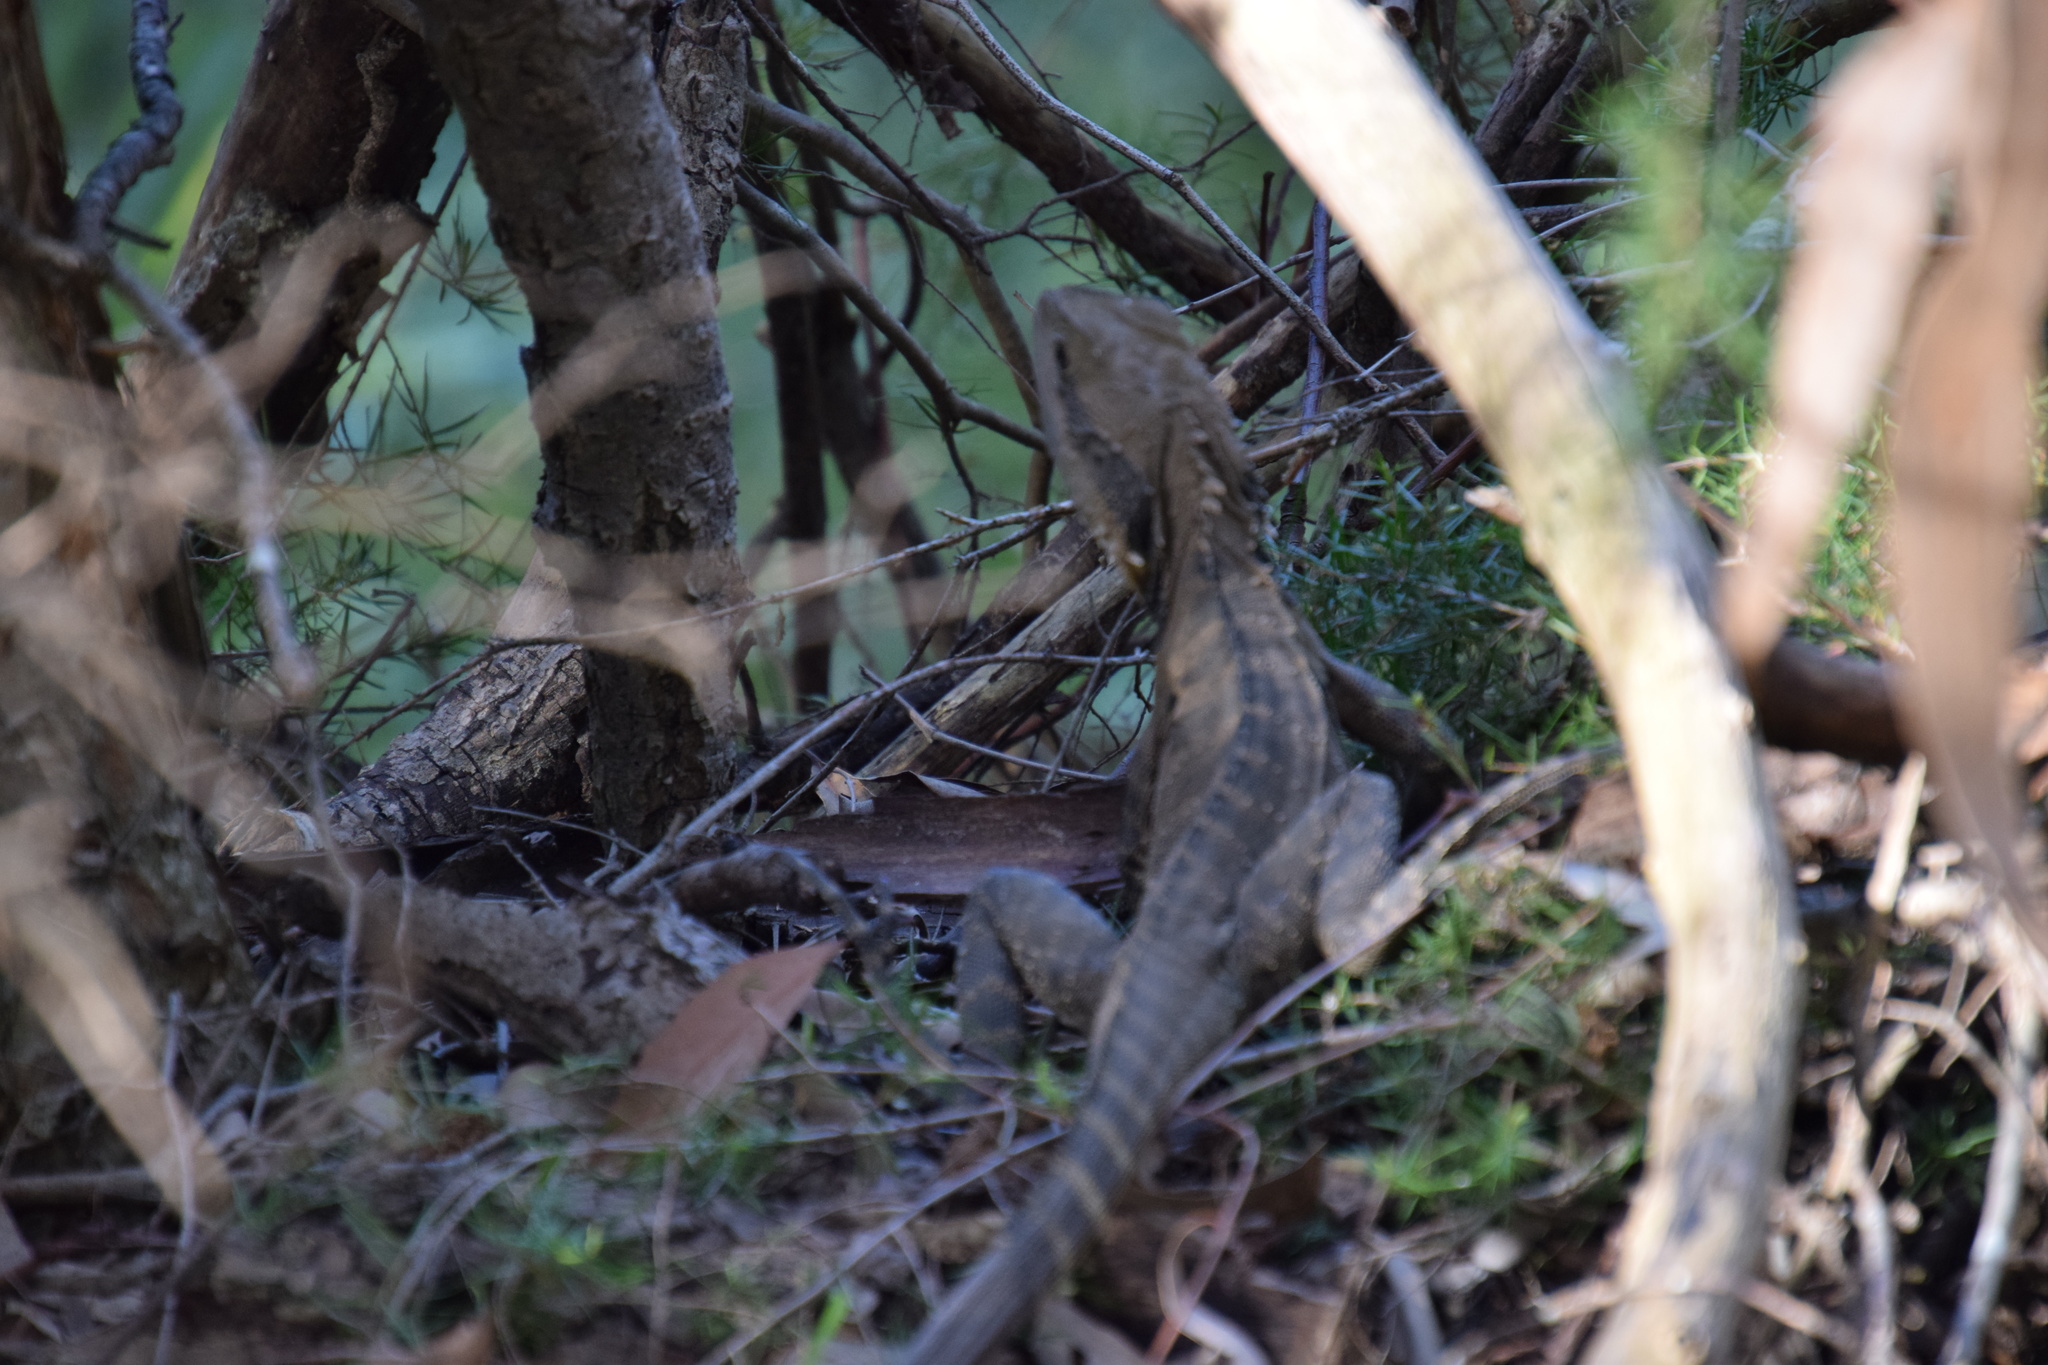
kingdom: Animalia
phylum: Chordata
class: Squamata
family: Agamidae
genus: Intellagama
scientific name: Intellagama lesueurii
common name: Eastern water dragon
